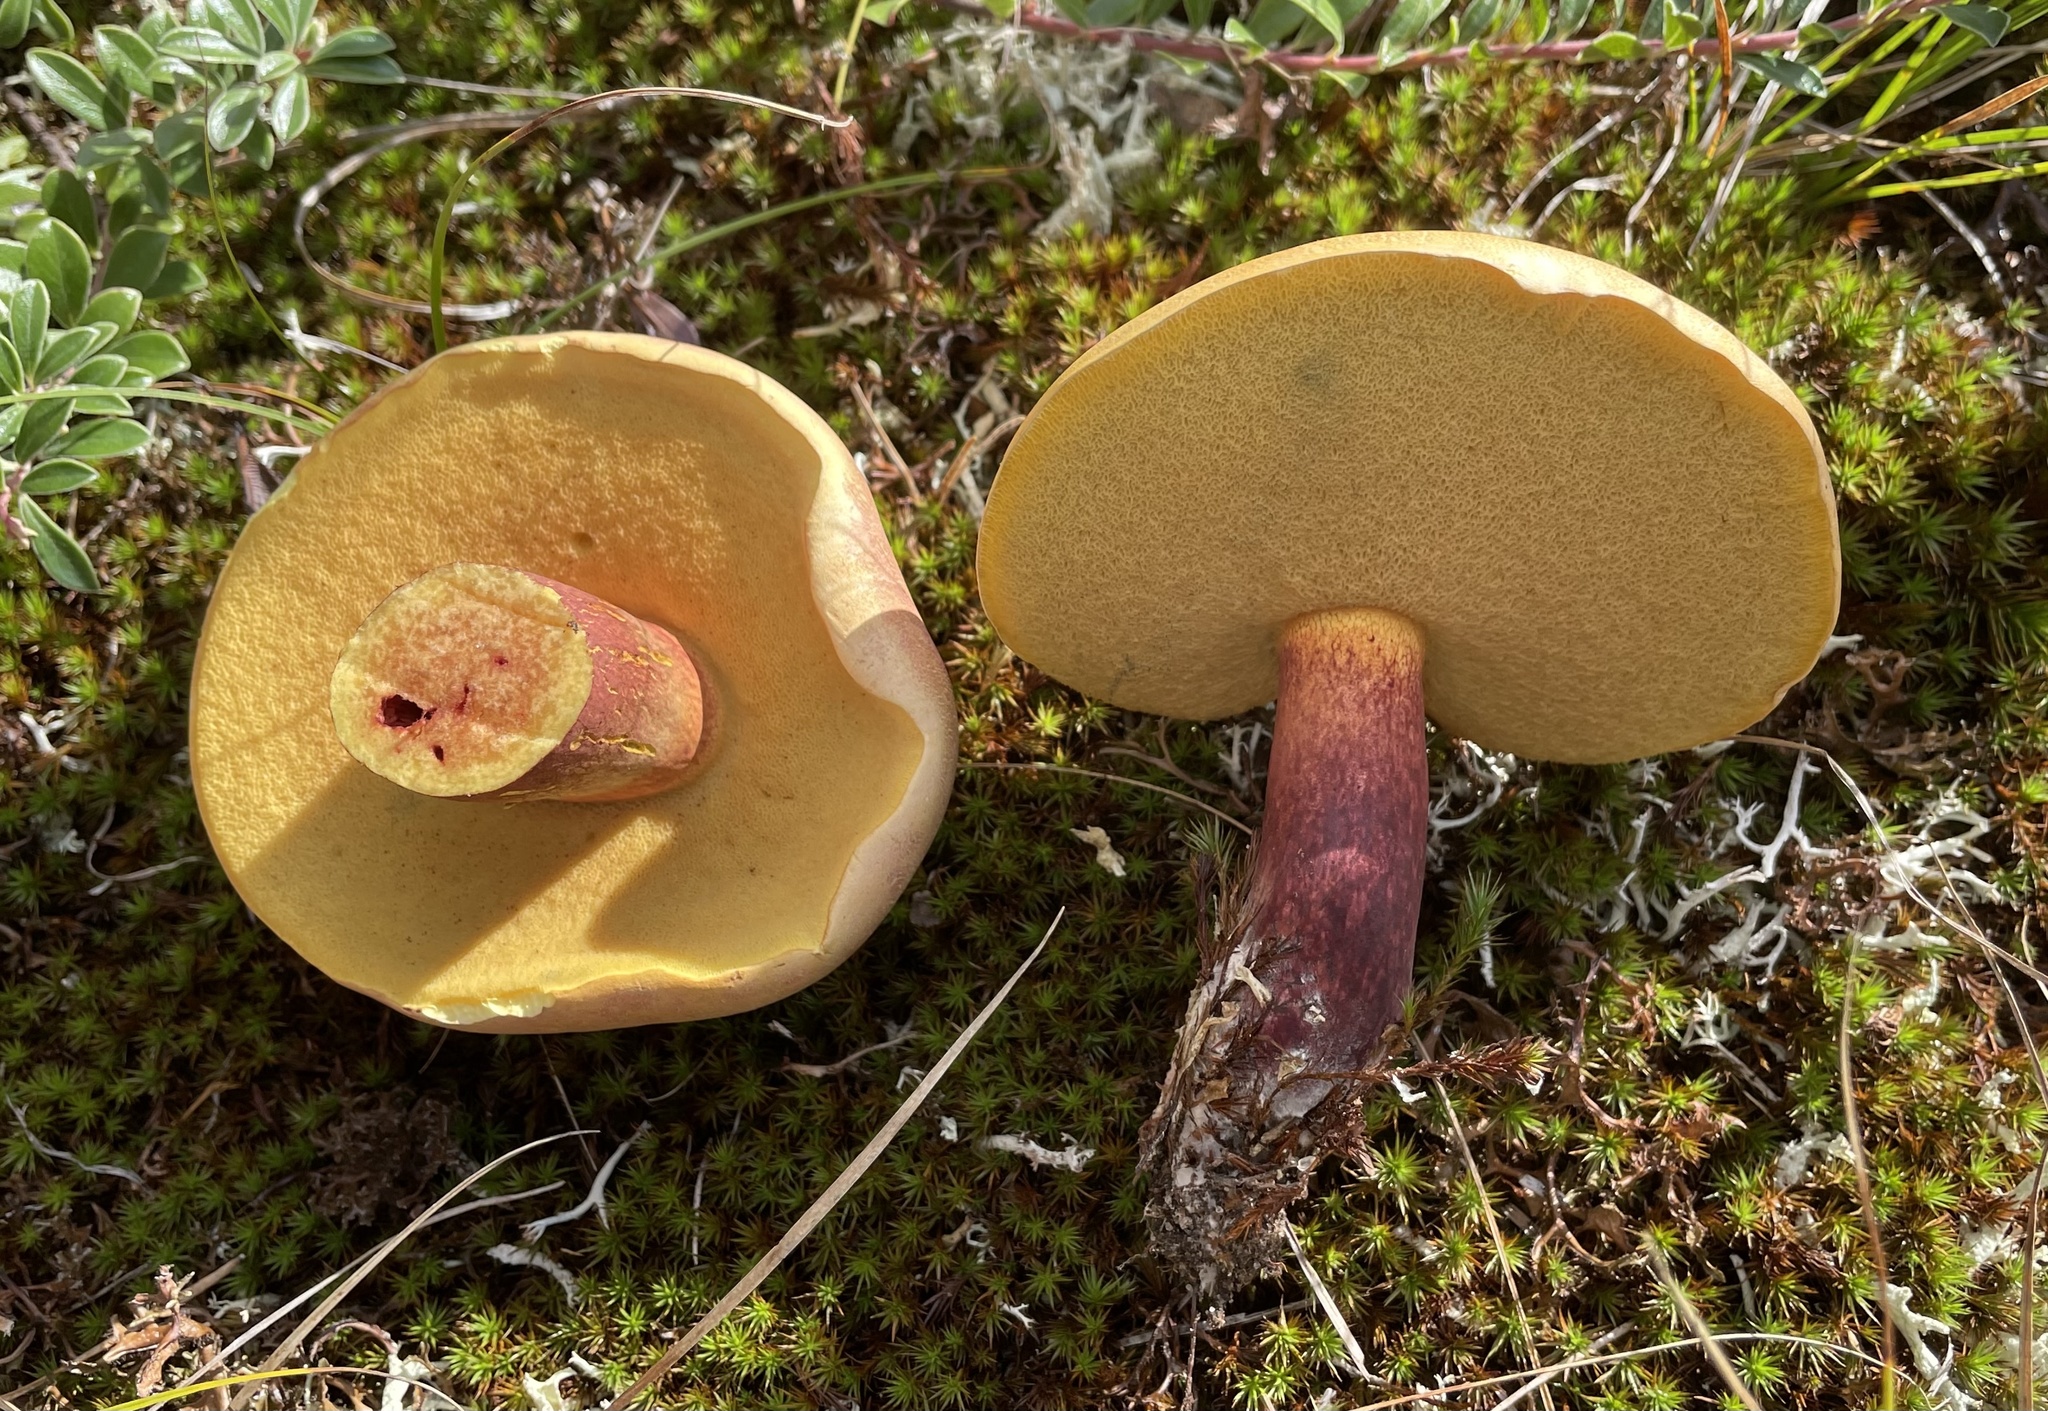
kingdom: Fungi
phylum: Basidiomycota
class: Agaricomycetes
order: Boletales
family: Boletaceae
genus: Baorangia
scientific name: Baorangia bicolor
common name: Two-colored bolete
